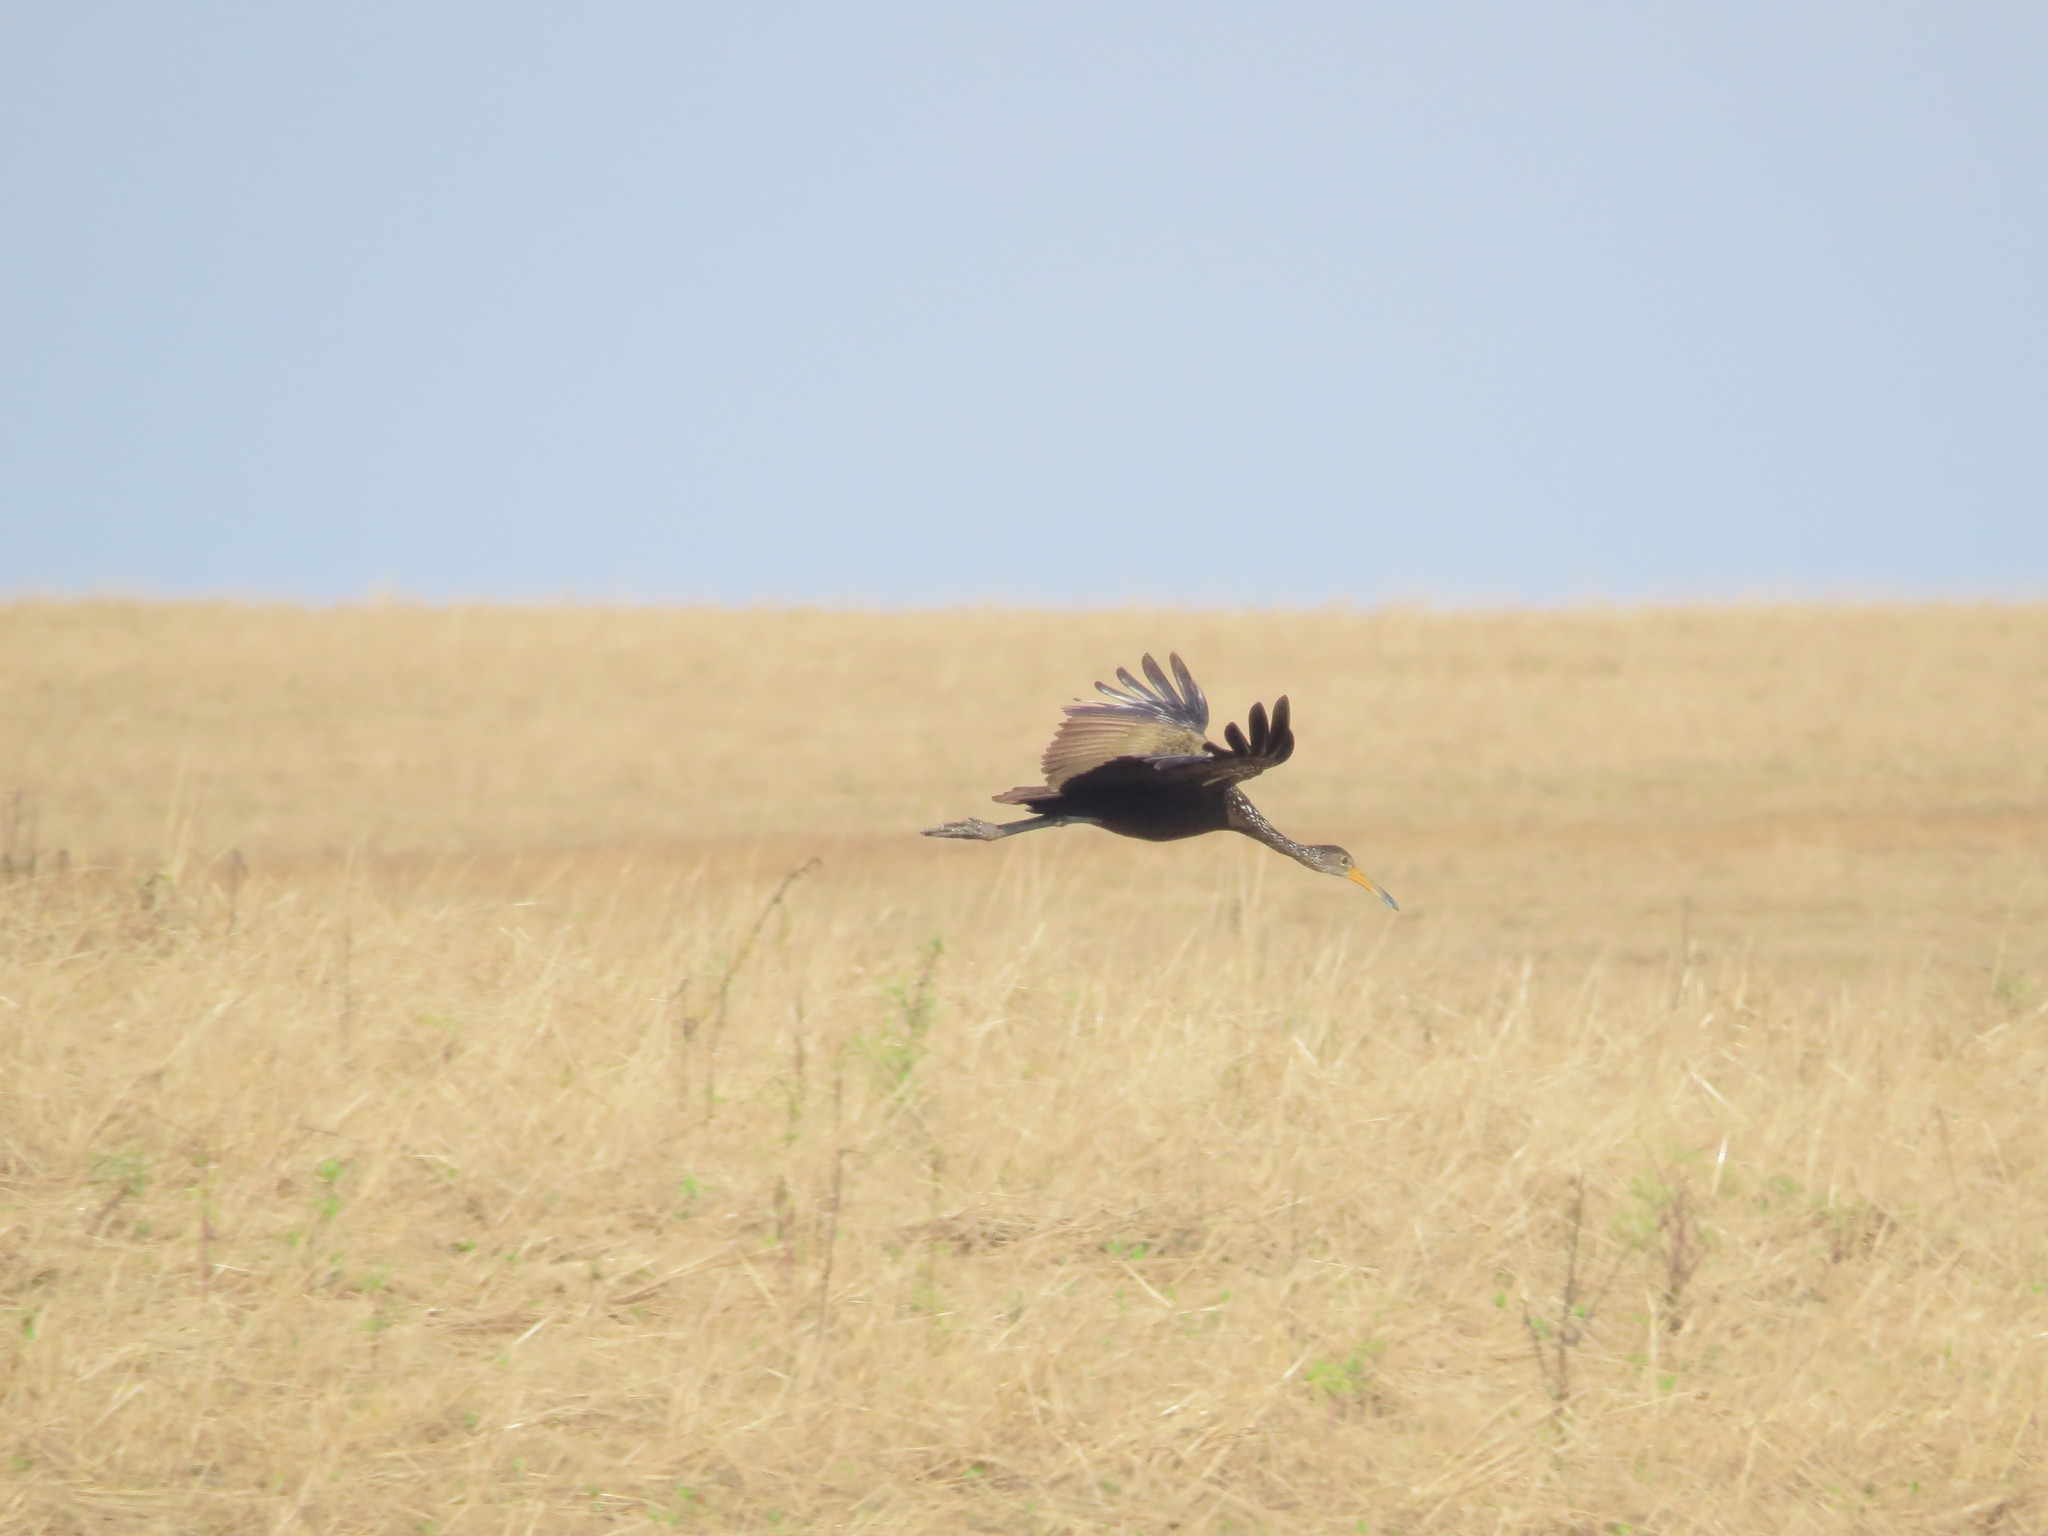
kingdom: Animalia
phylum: Chordata
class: Aves
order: Gruiformes
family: Aramidae
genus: Aramus
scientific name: Aramus guarauna
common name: Limpkin
